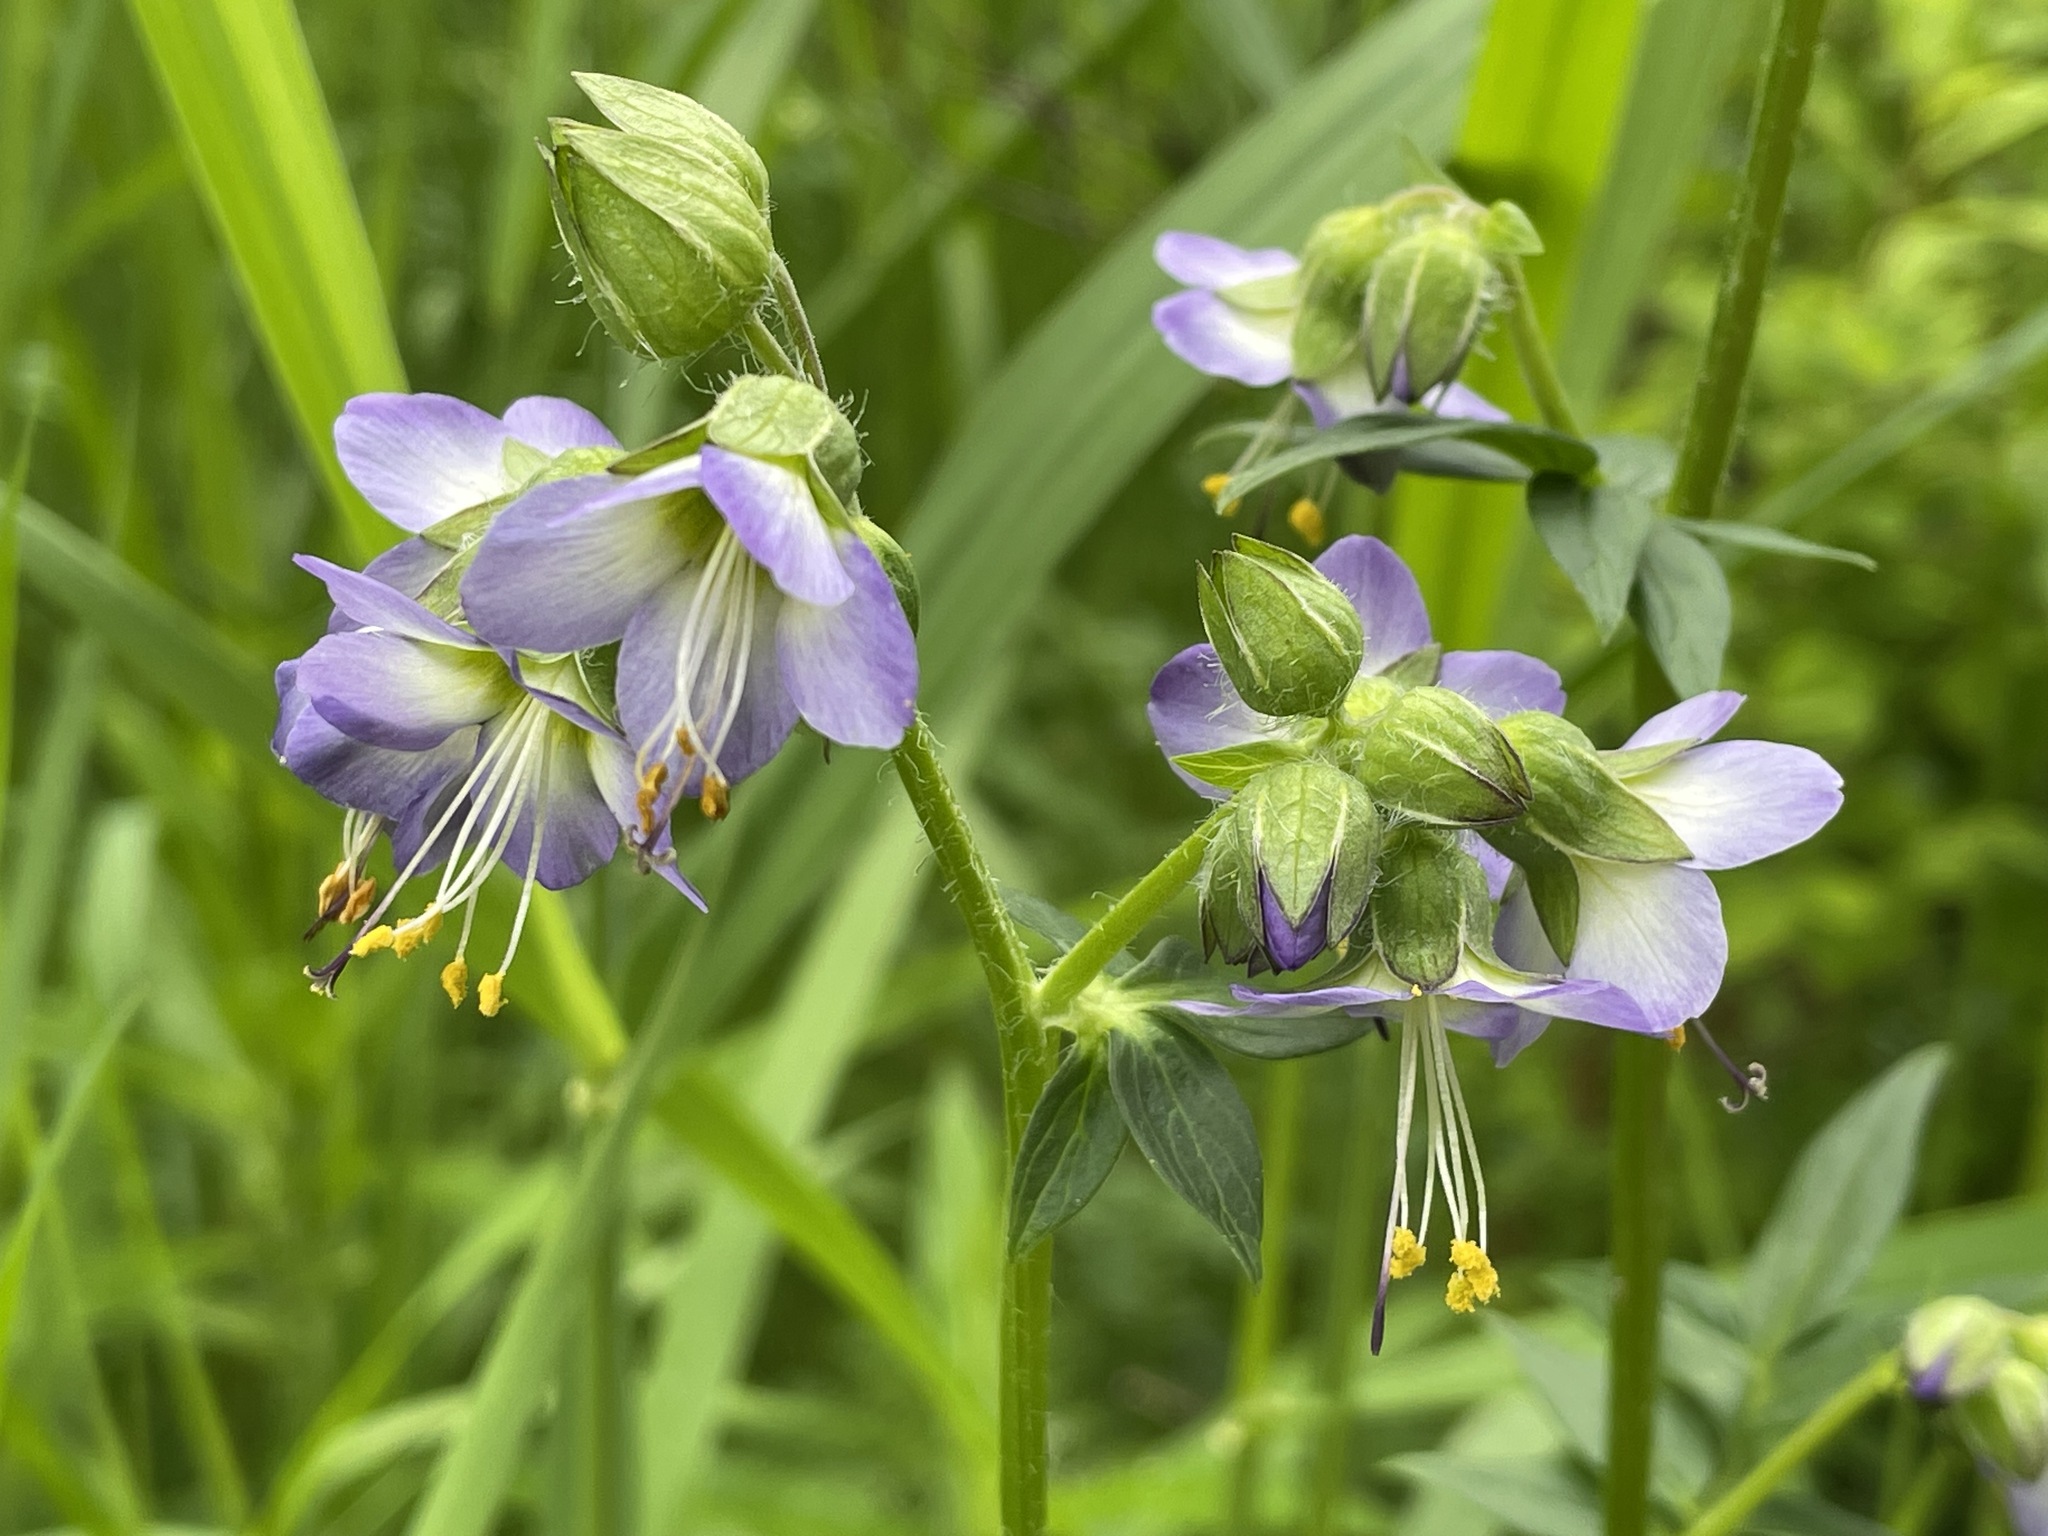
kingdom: Plantae
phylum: Tracheophyta
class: Magnoliopsida
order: Ericales
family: Polemoniaceae
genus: Polemonium
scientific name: Polemonium vanbruntiae
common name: Bog jacob's-ladder
